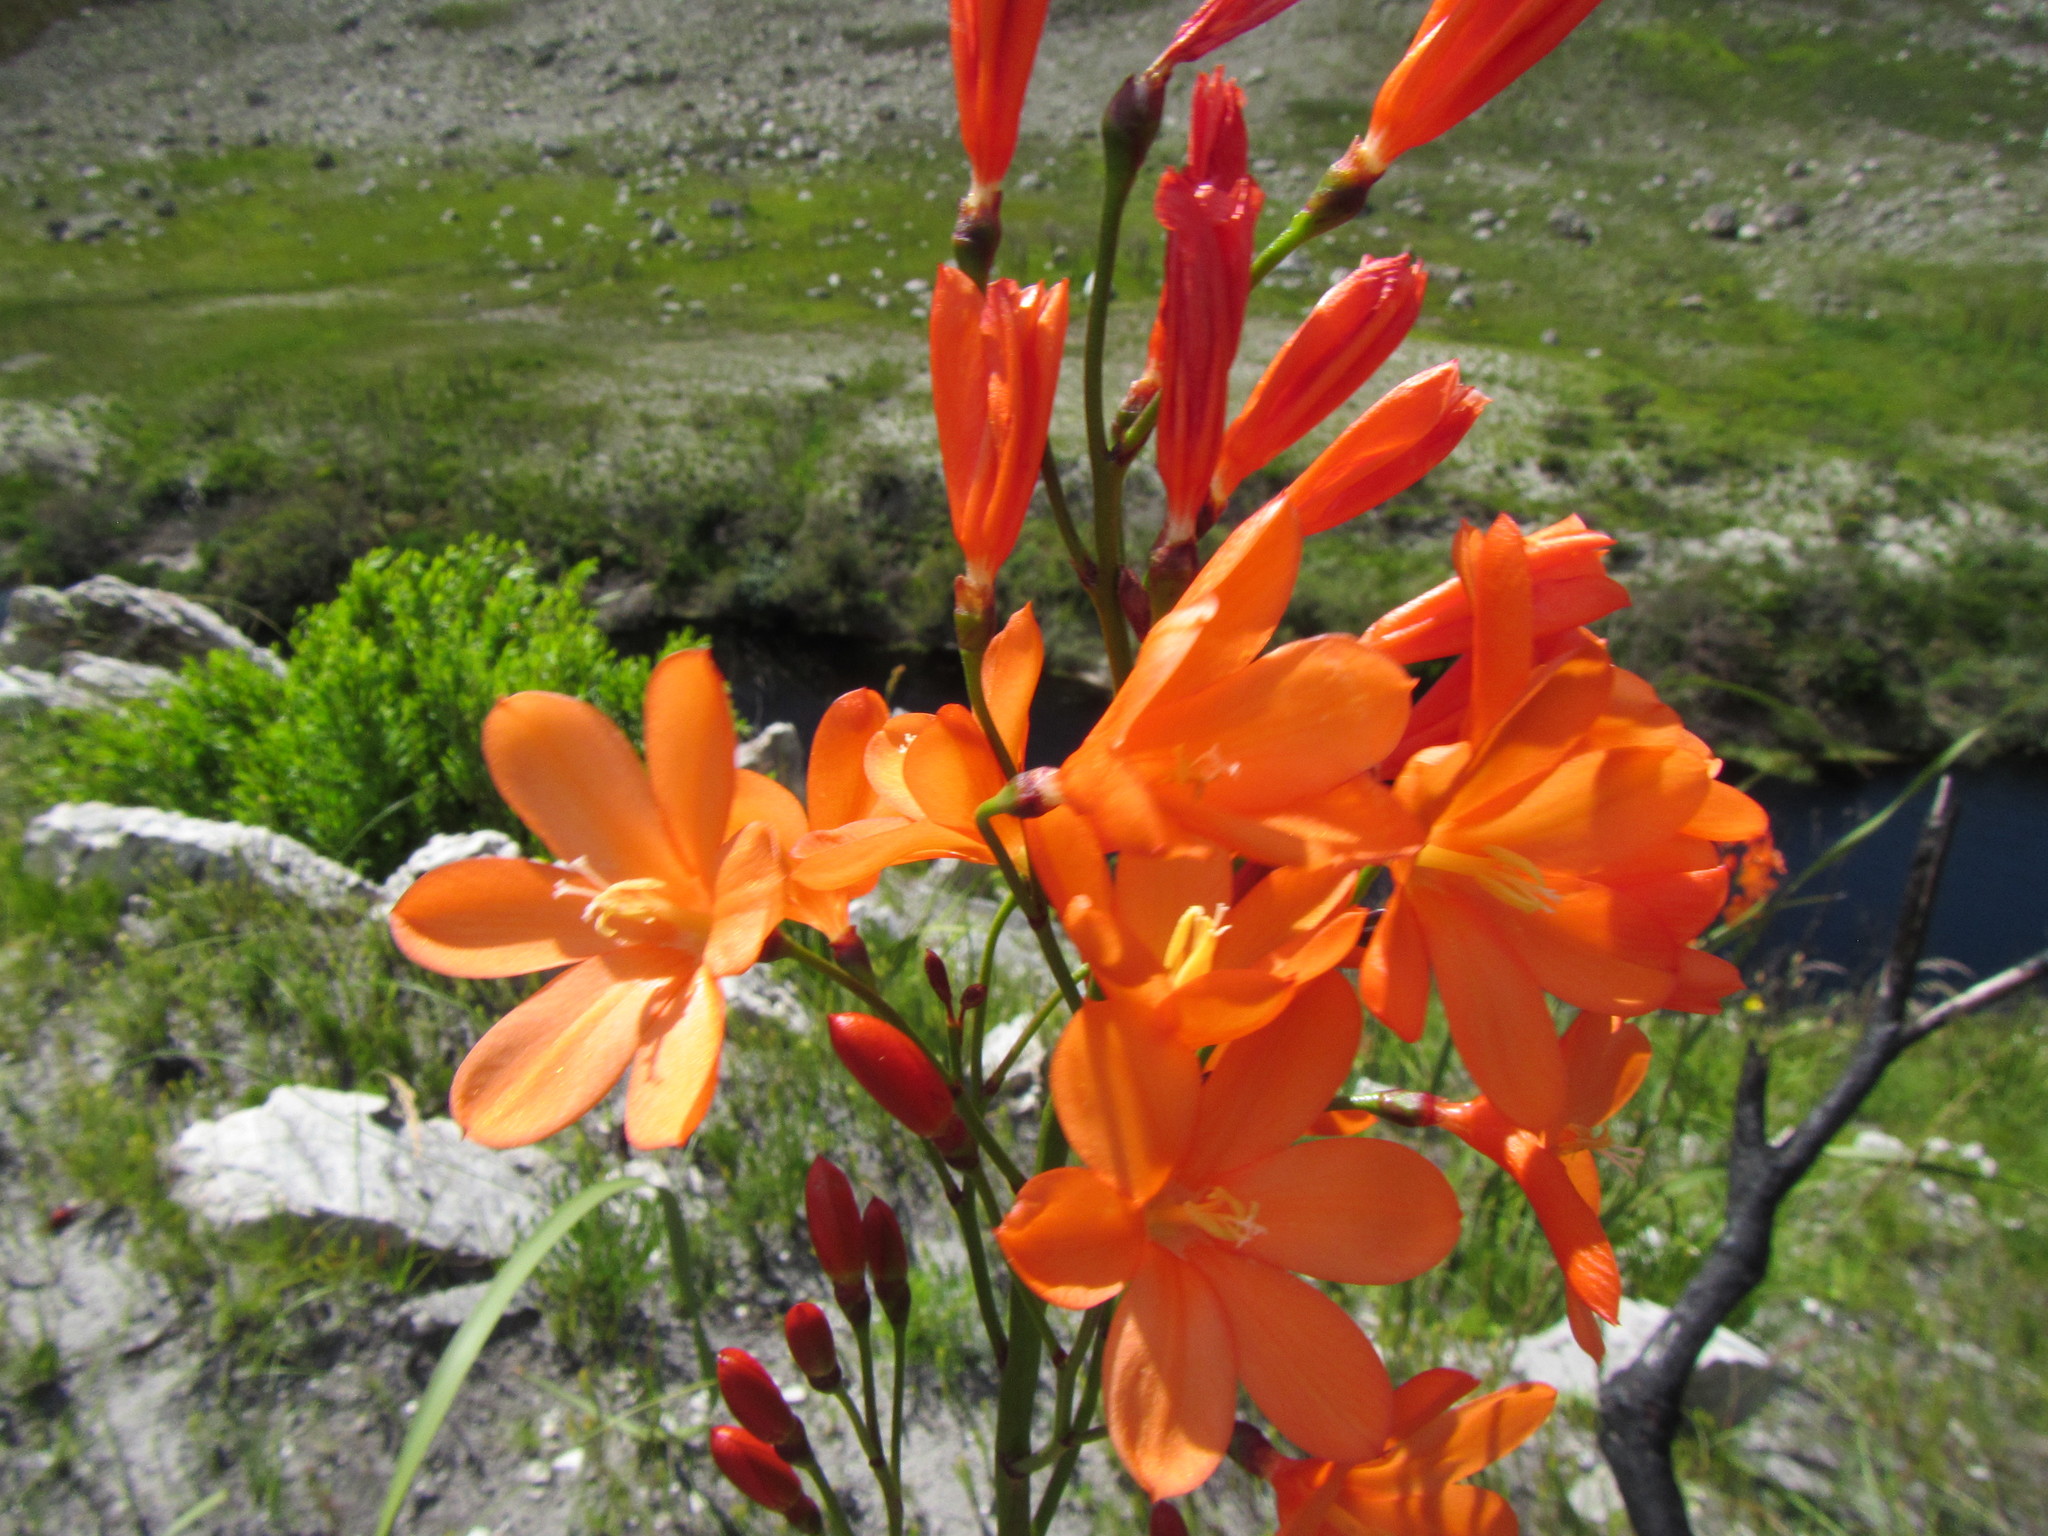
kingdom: Plantae
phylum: Tracheophyta
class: Liliopsida
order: Asparagales
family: Iridaceae
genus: Pillansia
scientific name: Pillansia templemannii
